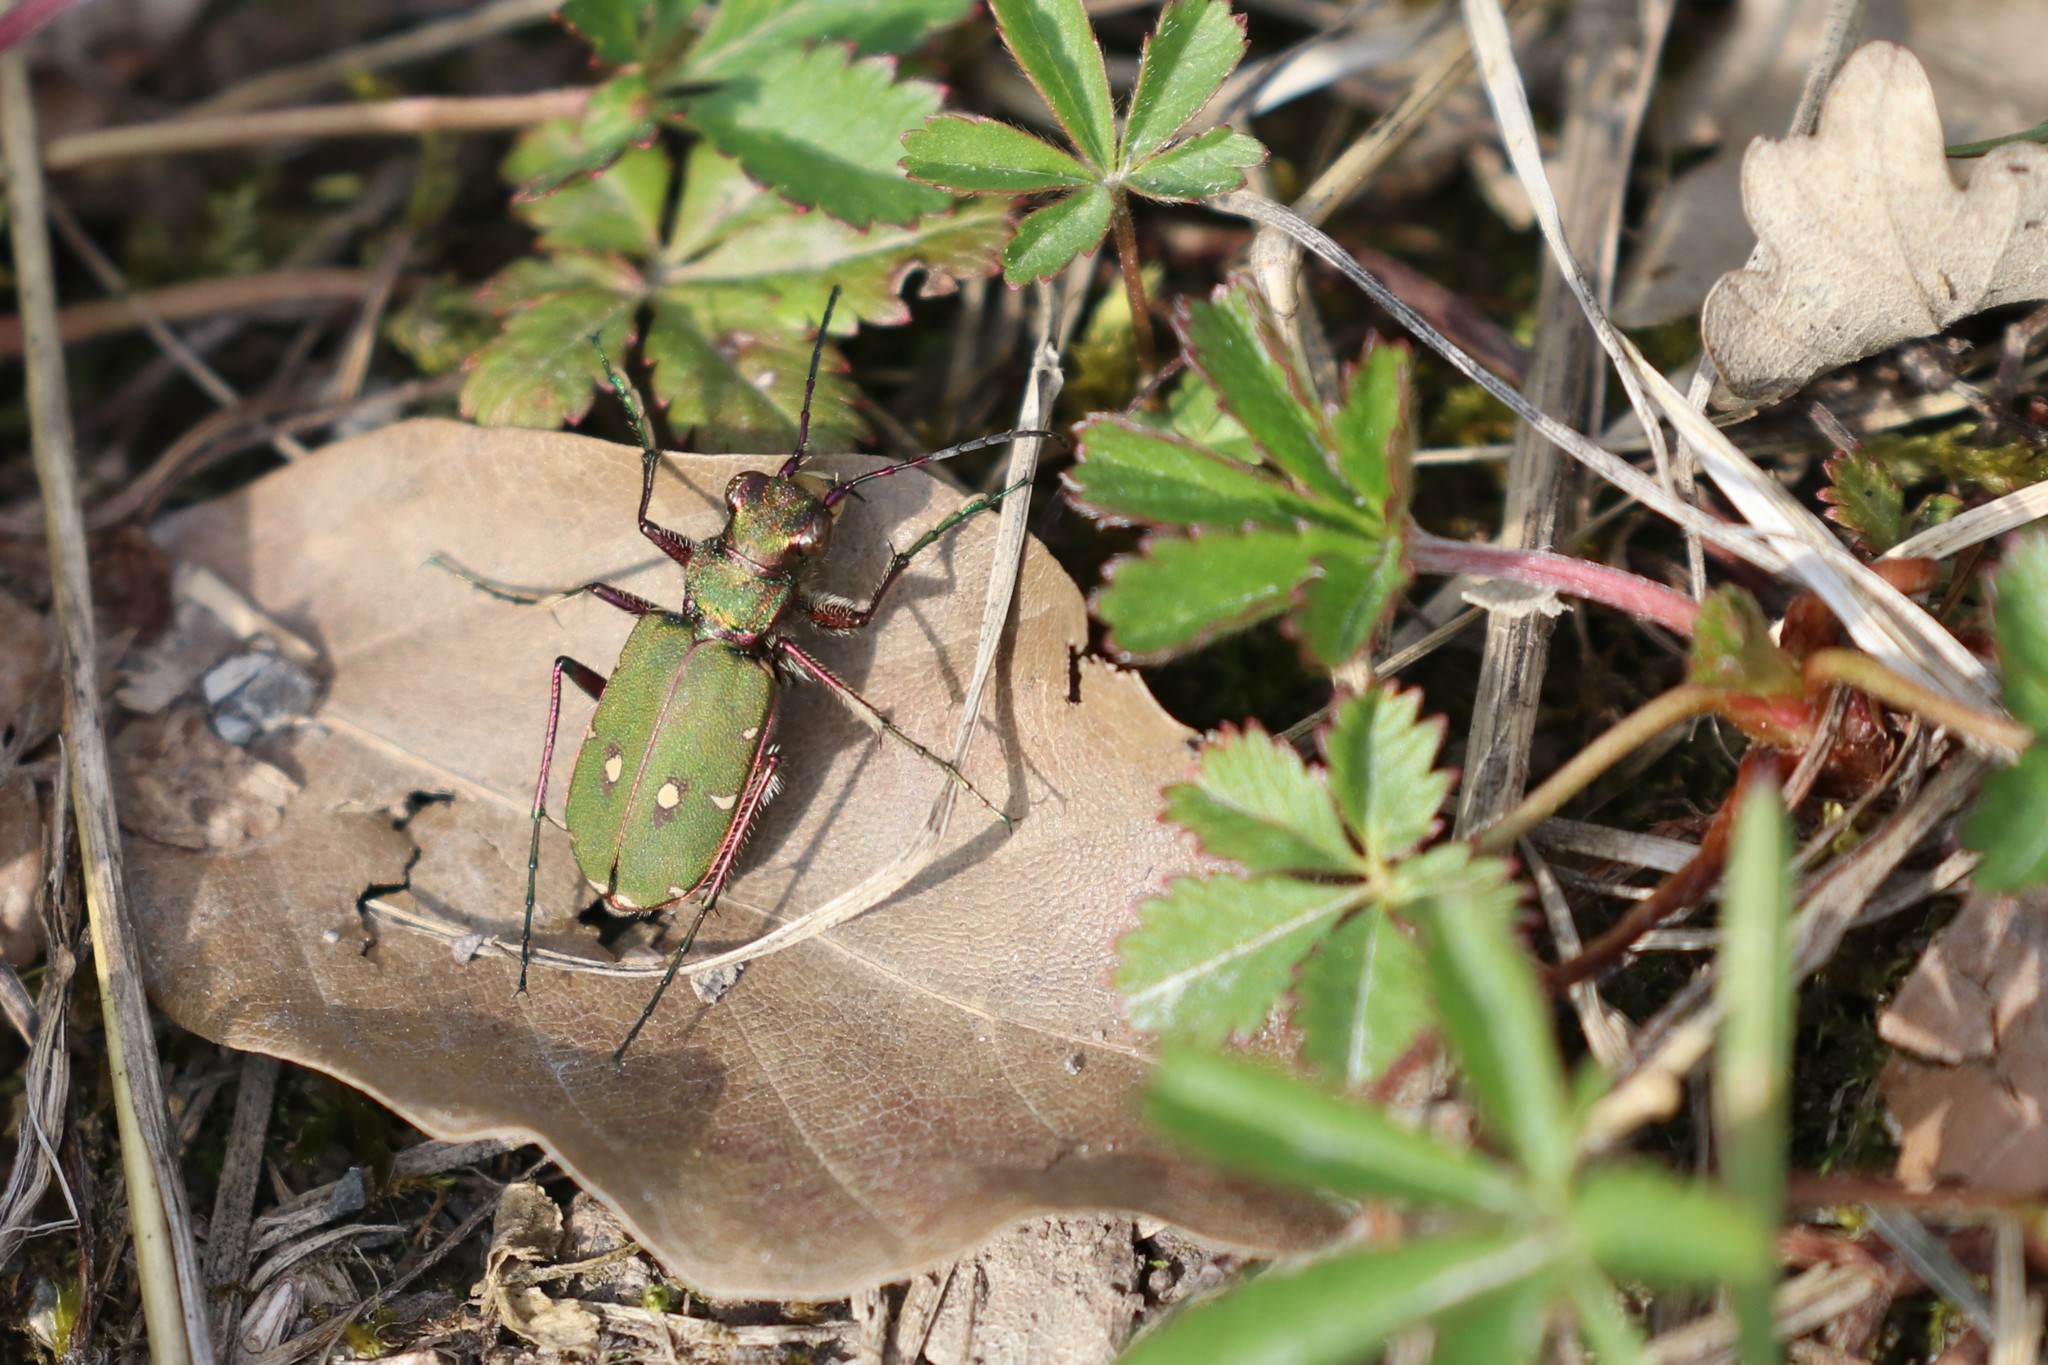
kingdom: Animalia
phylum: Arthropoda
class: Insecta
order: Coleoptera
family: Carabidae
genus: Cicindela
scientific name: Cicindela campestris
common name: Common tiger beetle
